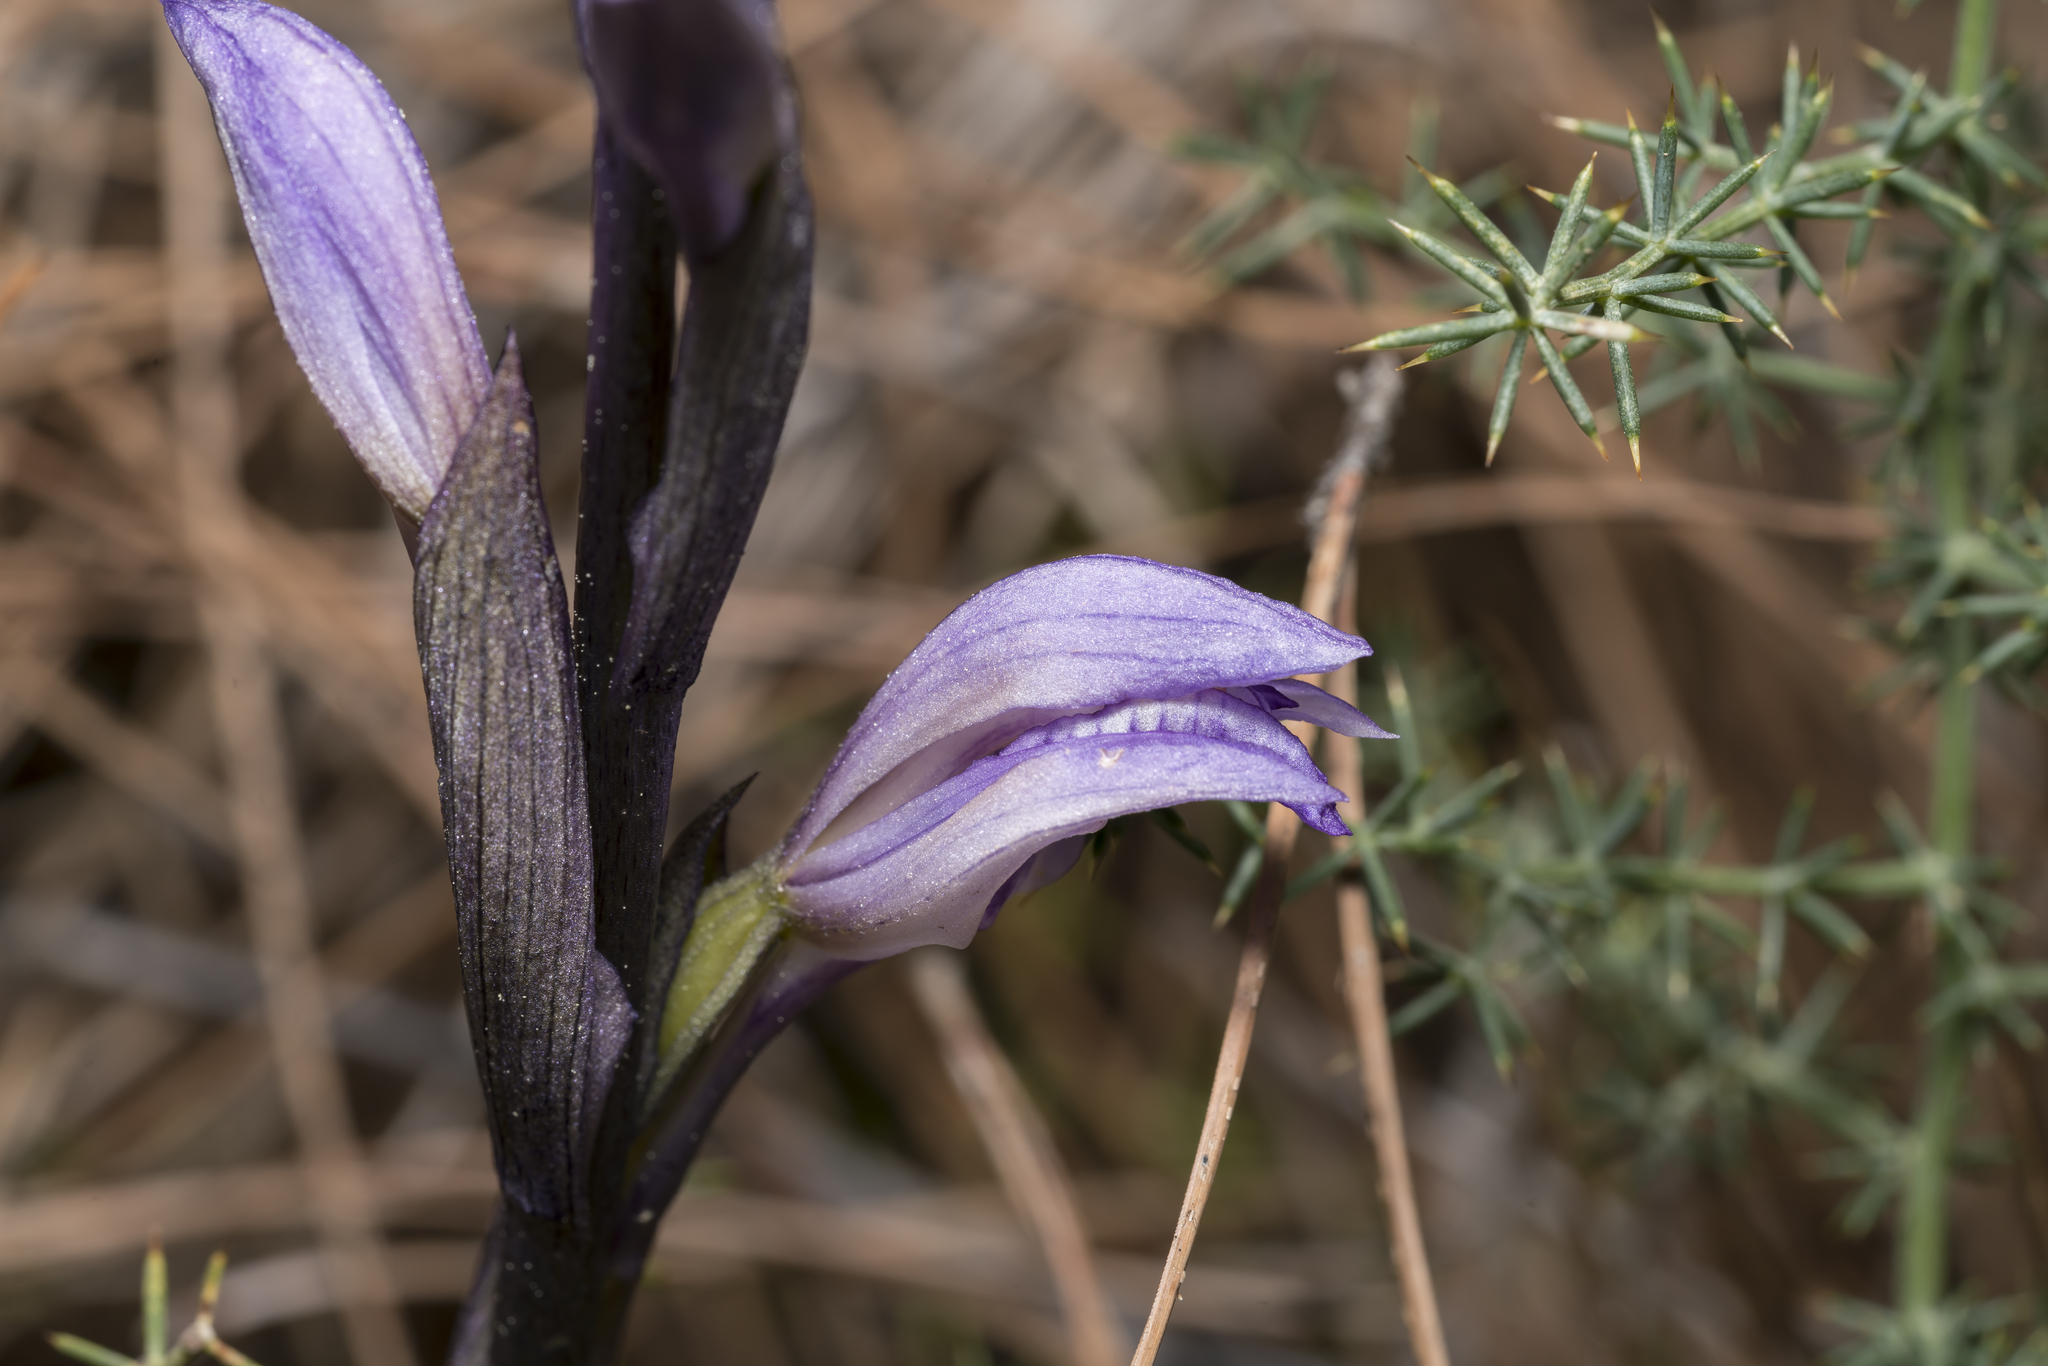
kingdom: Plantae
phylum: Tracheophyta
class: Liliopsida
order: Asparagales
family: Orchidaceae
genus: Limodorum
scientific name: Limodorum abortivum
